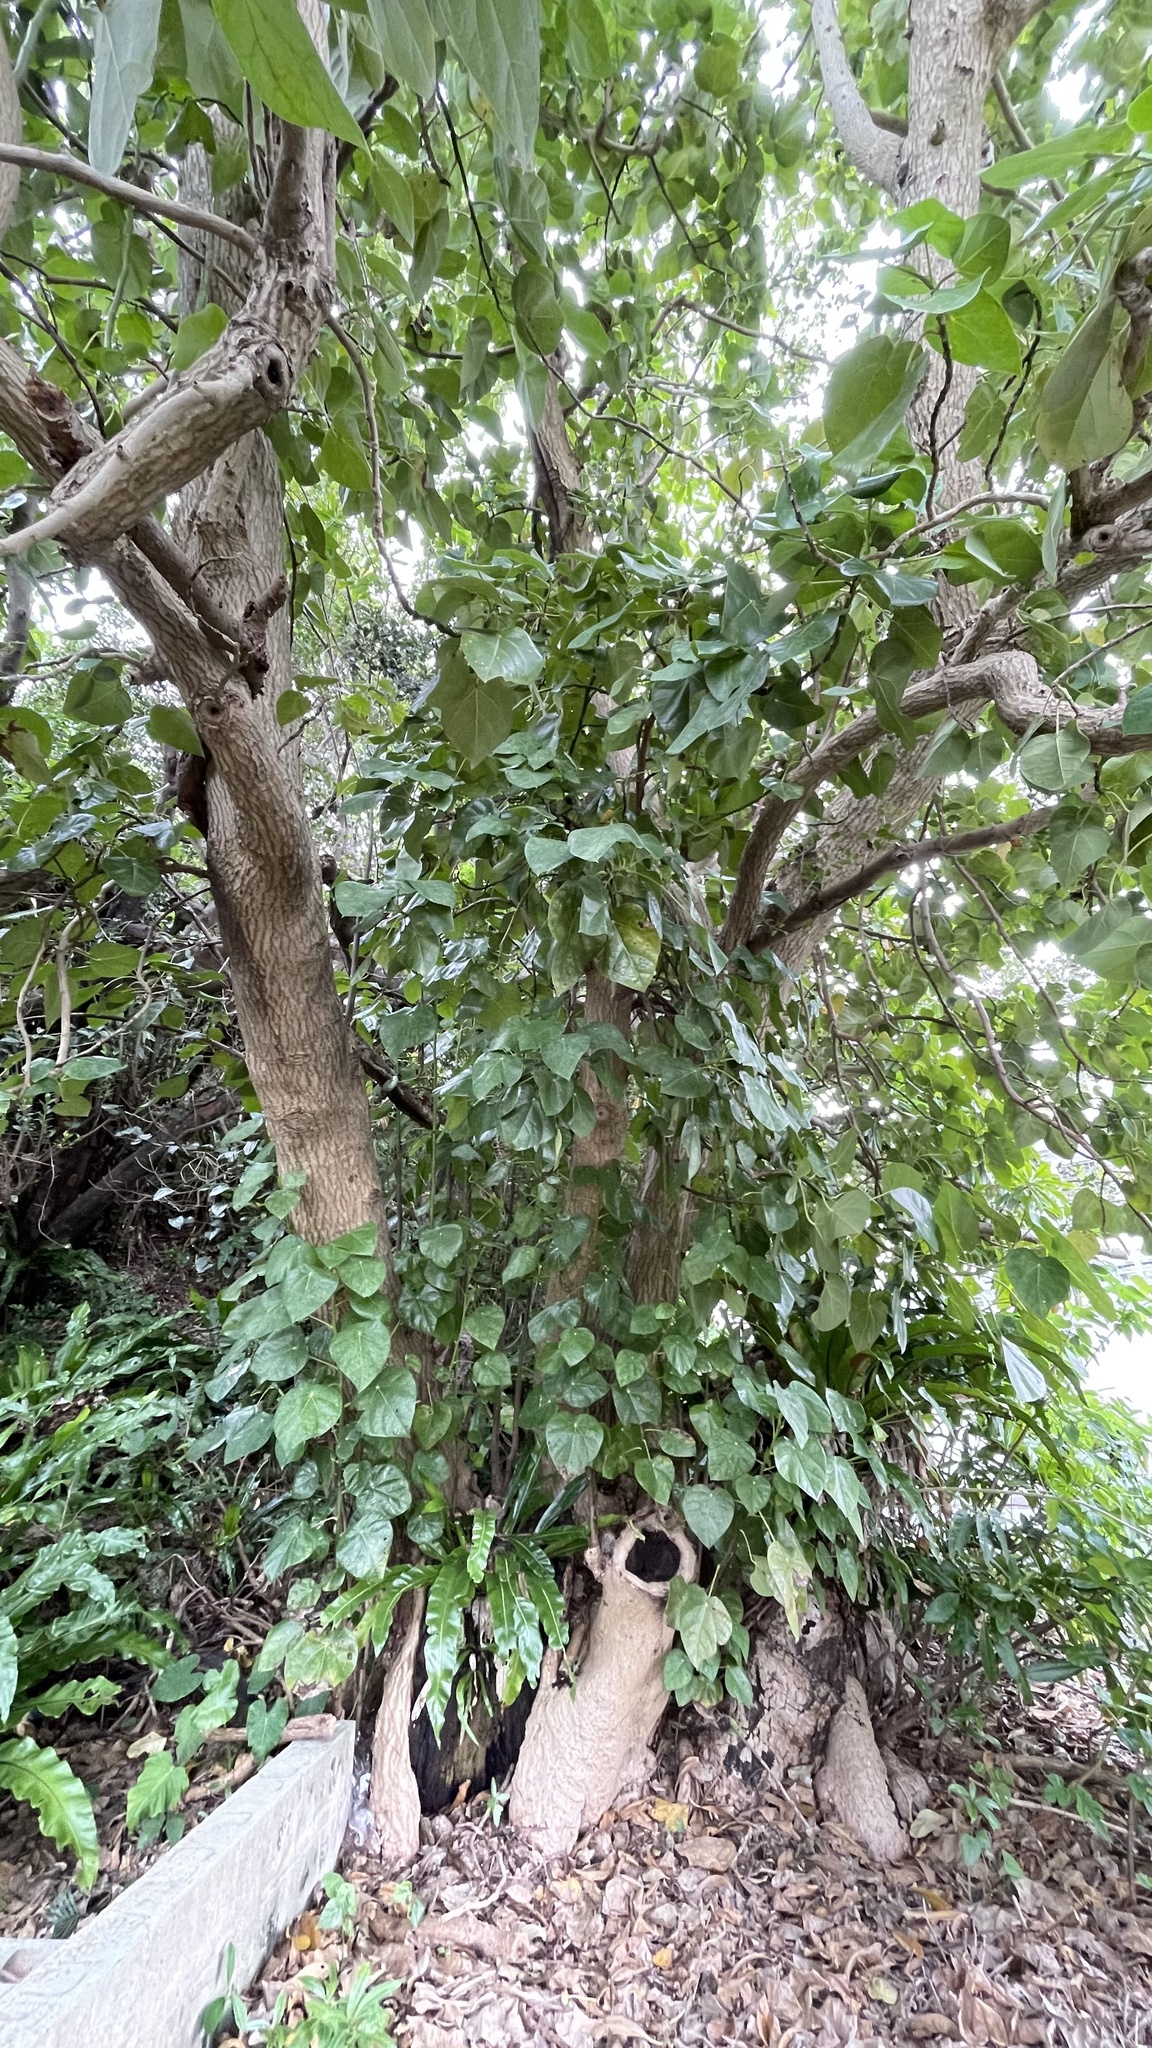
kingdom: Plantae
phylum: Tracheophyta
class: Magnoliopsida
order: Laurales
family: Hernandiaceae
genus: Hernandia
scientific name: Hernandia nymphaeifolia
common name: Sea hearse
